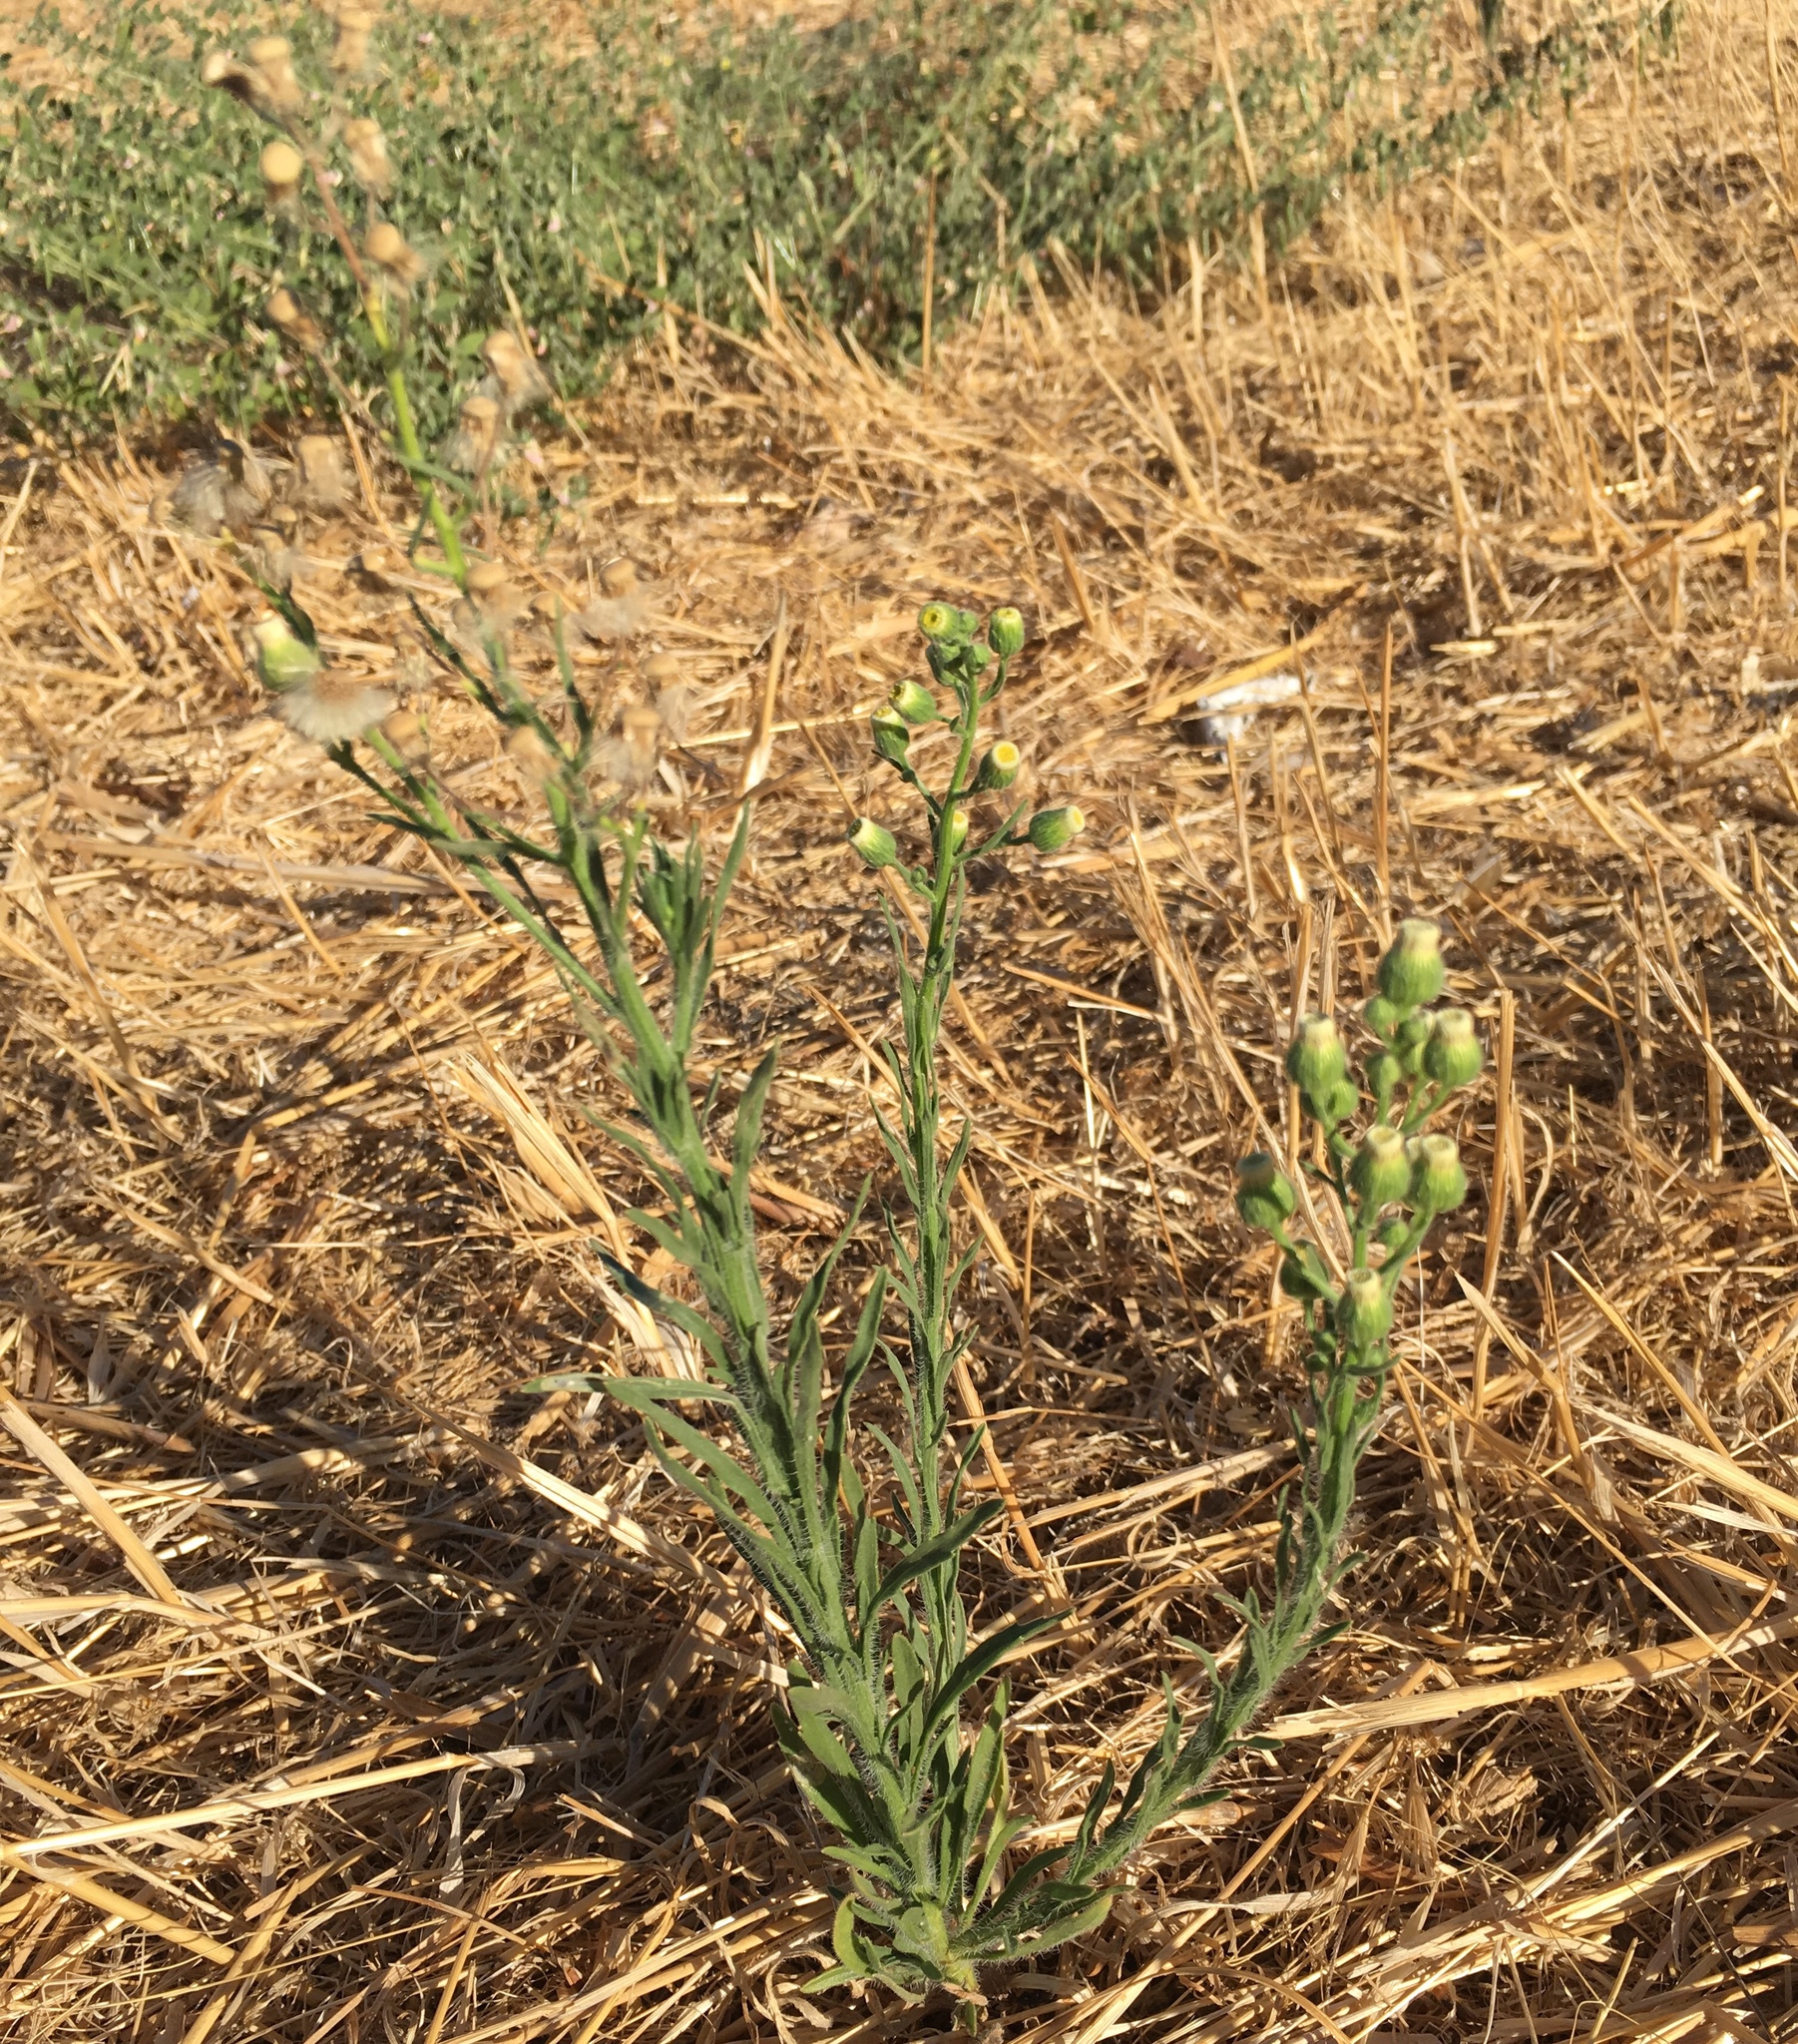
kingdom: Plantae
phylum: Tracheophyta
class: Magnoliopsida
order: Asterales
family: Asteraceae
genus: Erigeron
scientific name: Erigeron bonariensis
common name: Argentine fleabane
